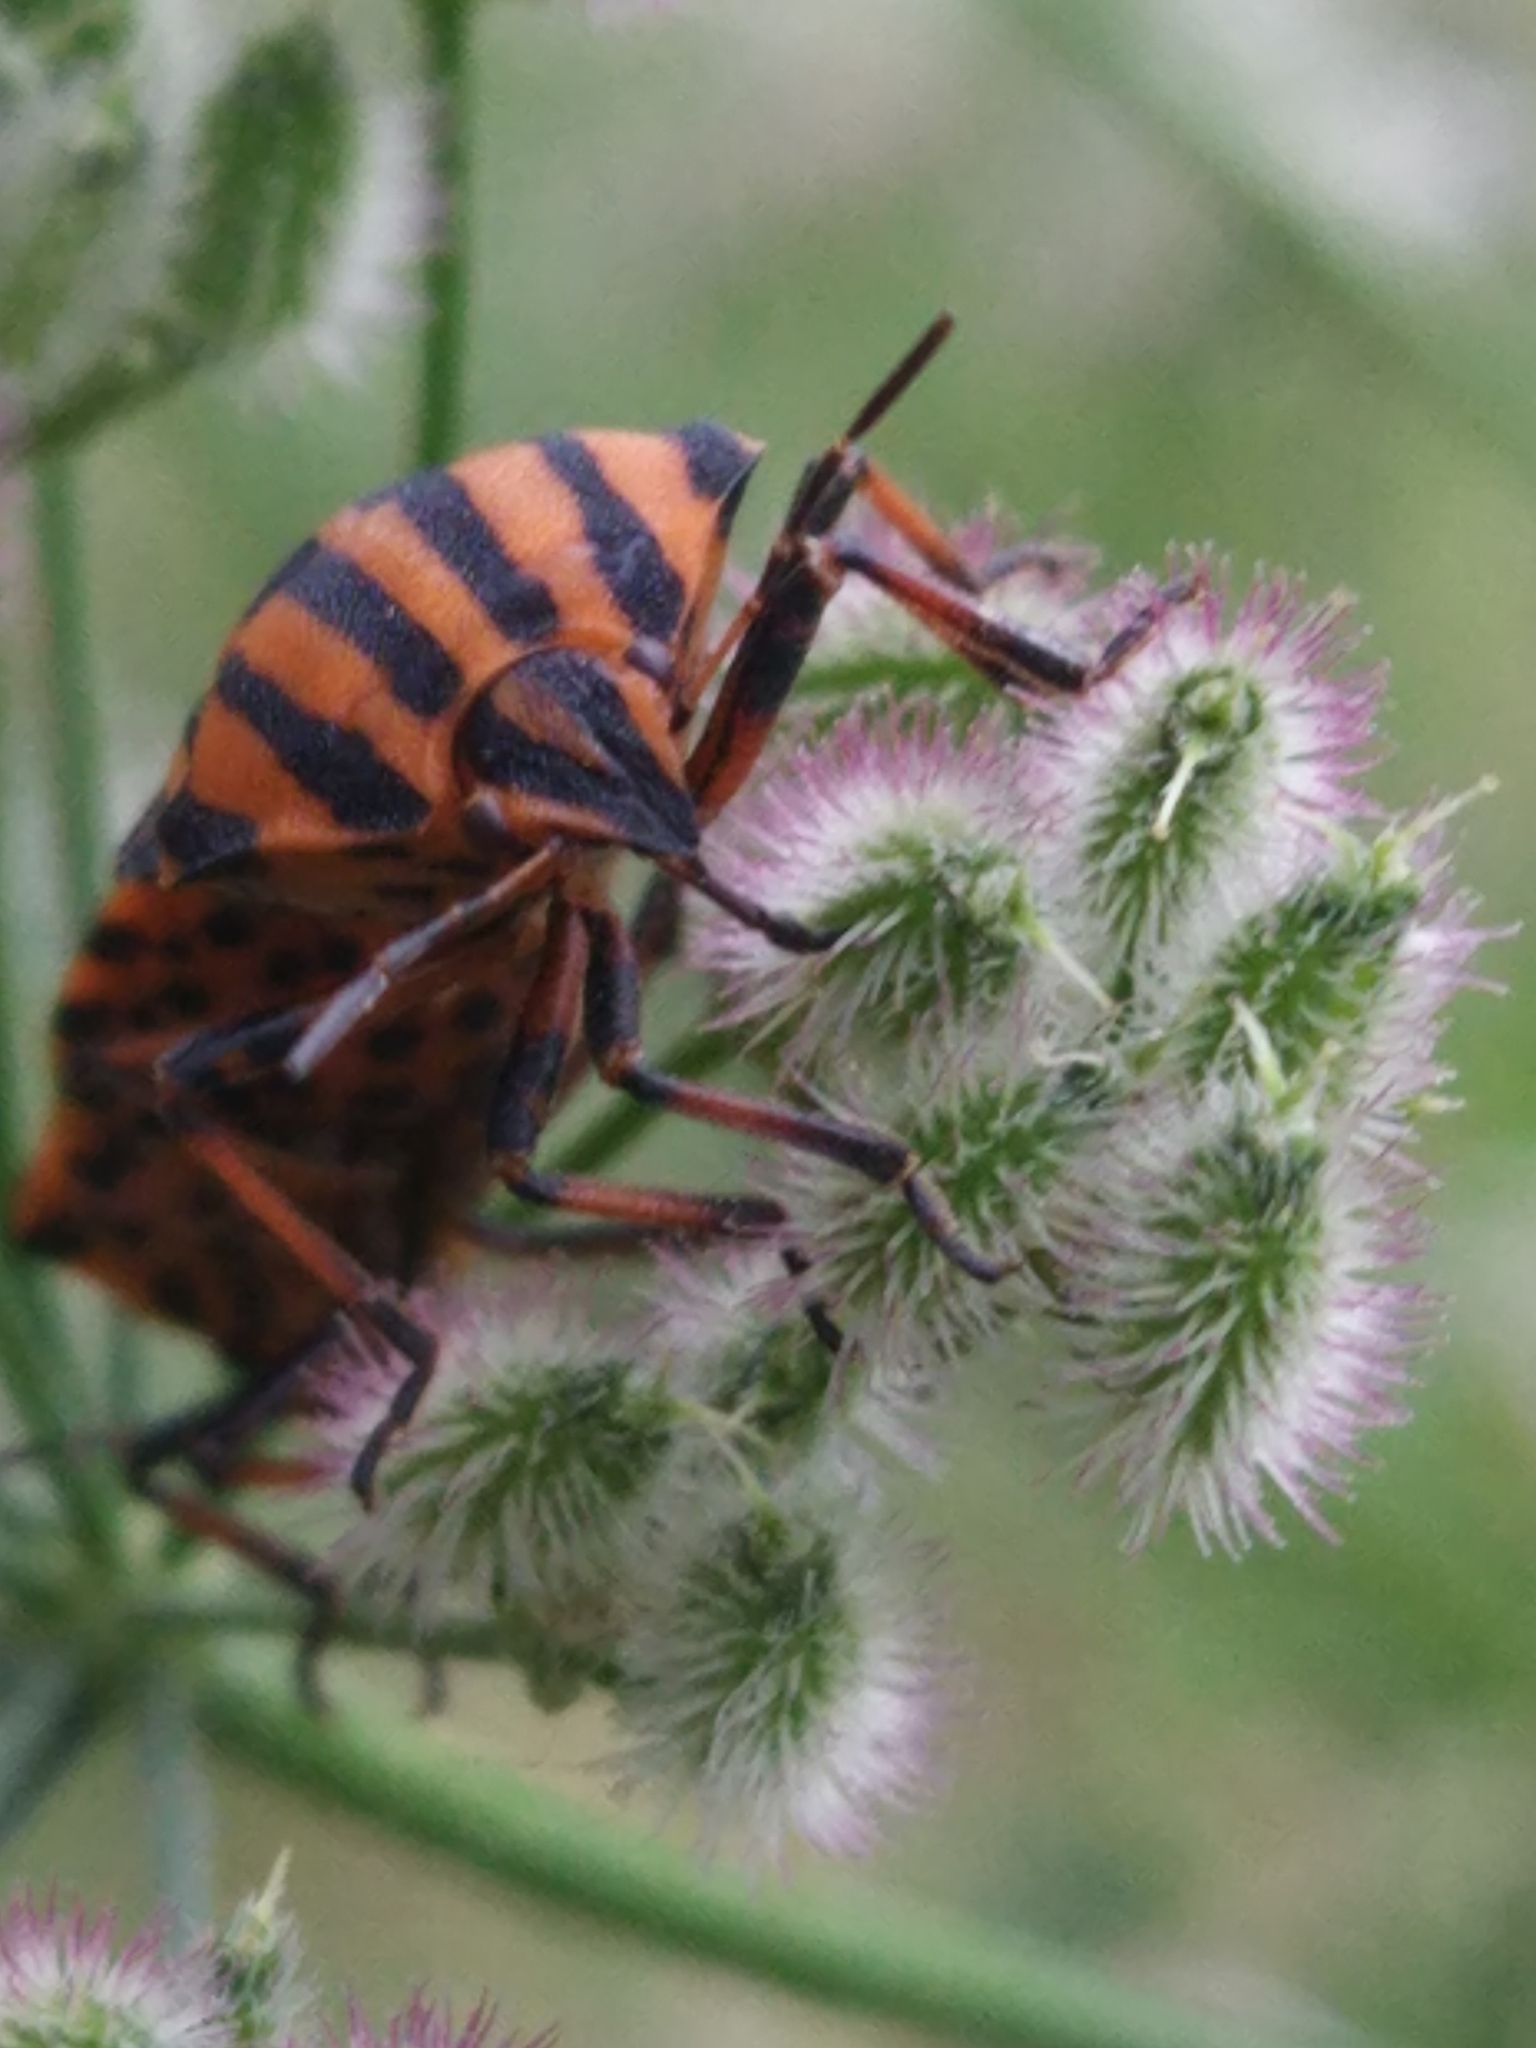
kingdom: Animalia
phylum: Arthropoda
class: Insecta
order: Hemiptera
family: Pentatomidae
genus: Graphosoma
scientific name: Graphosoma italicum
